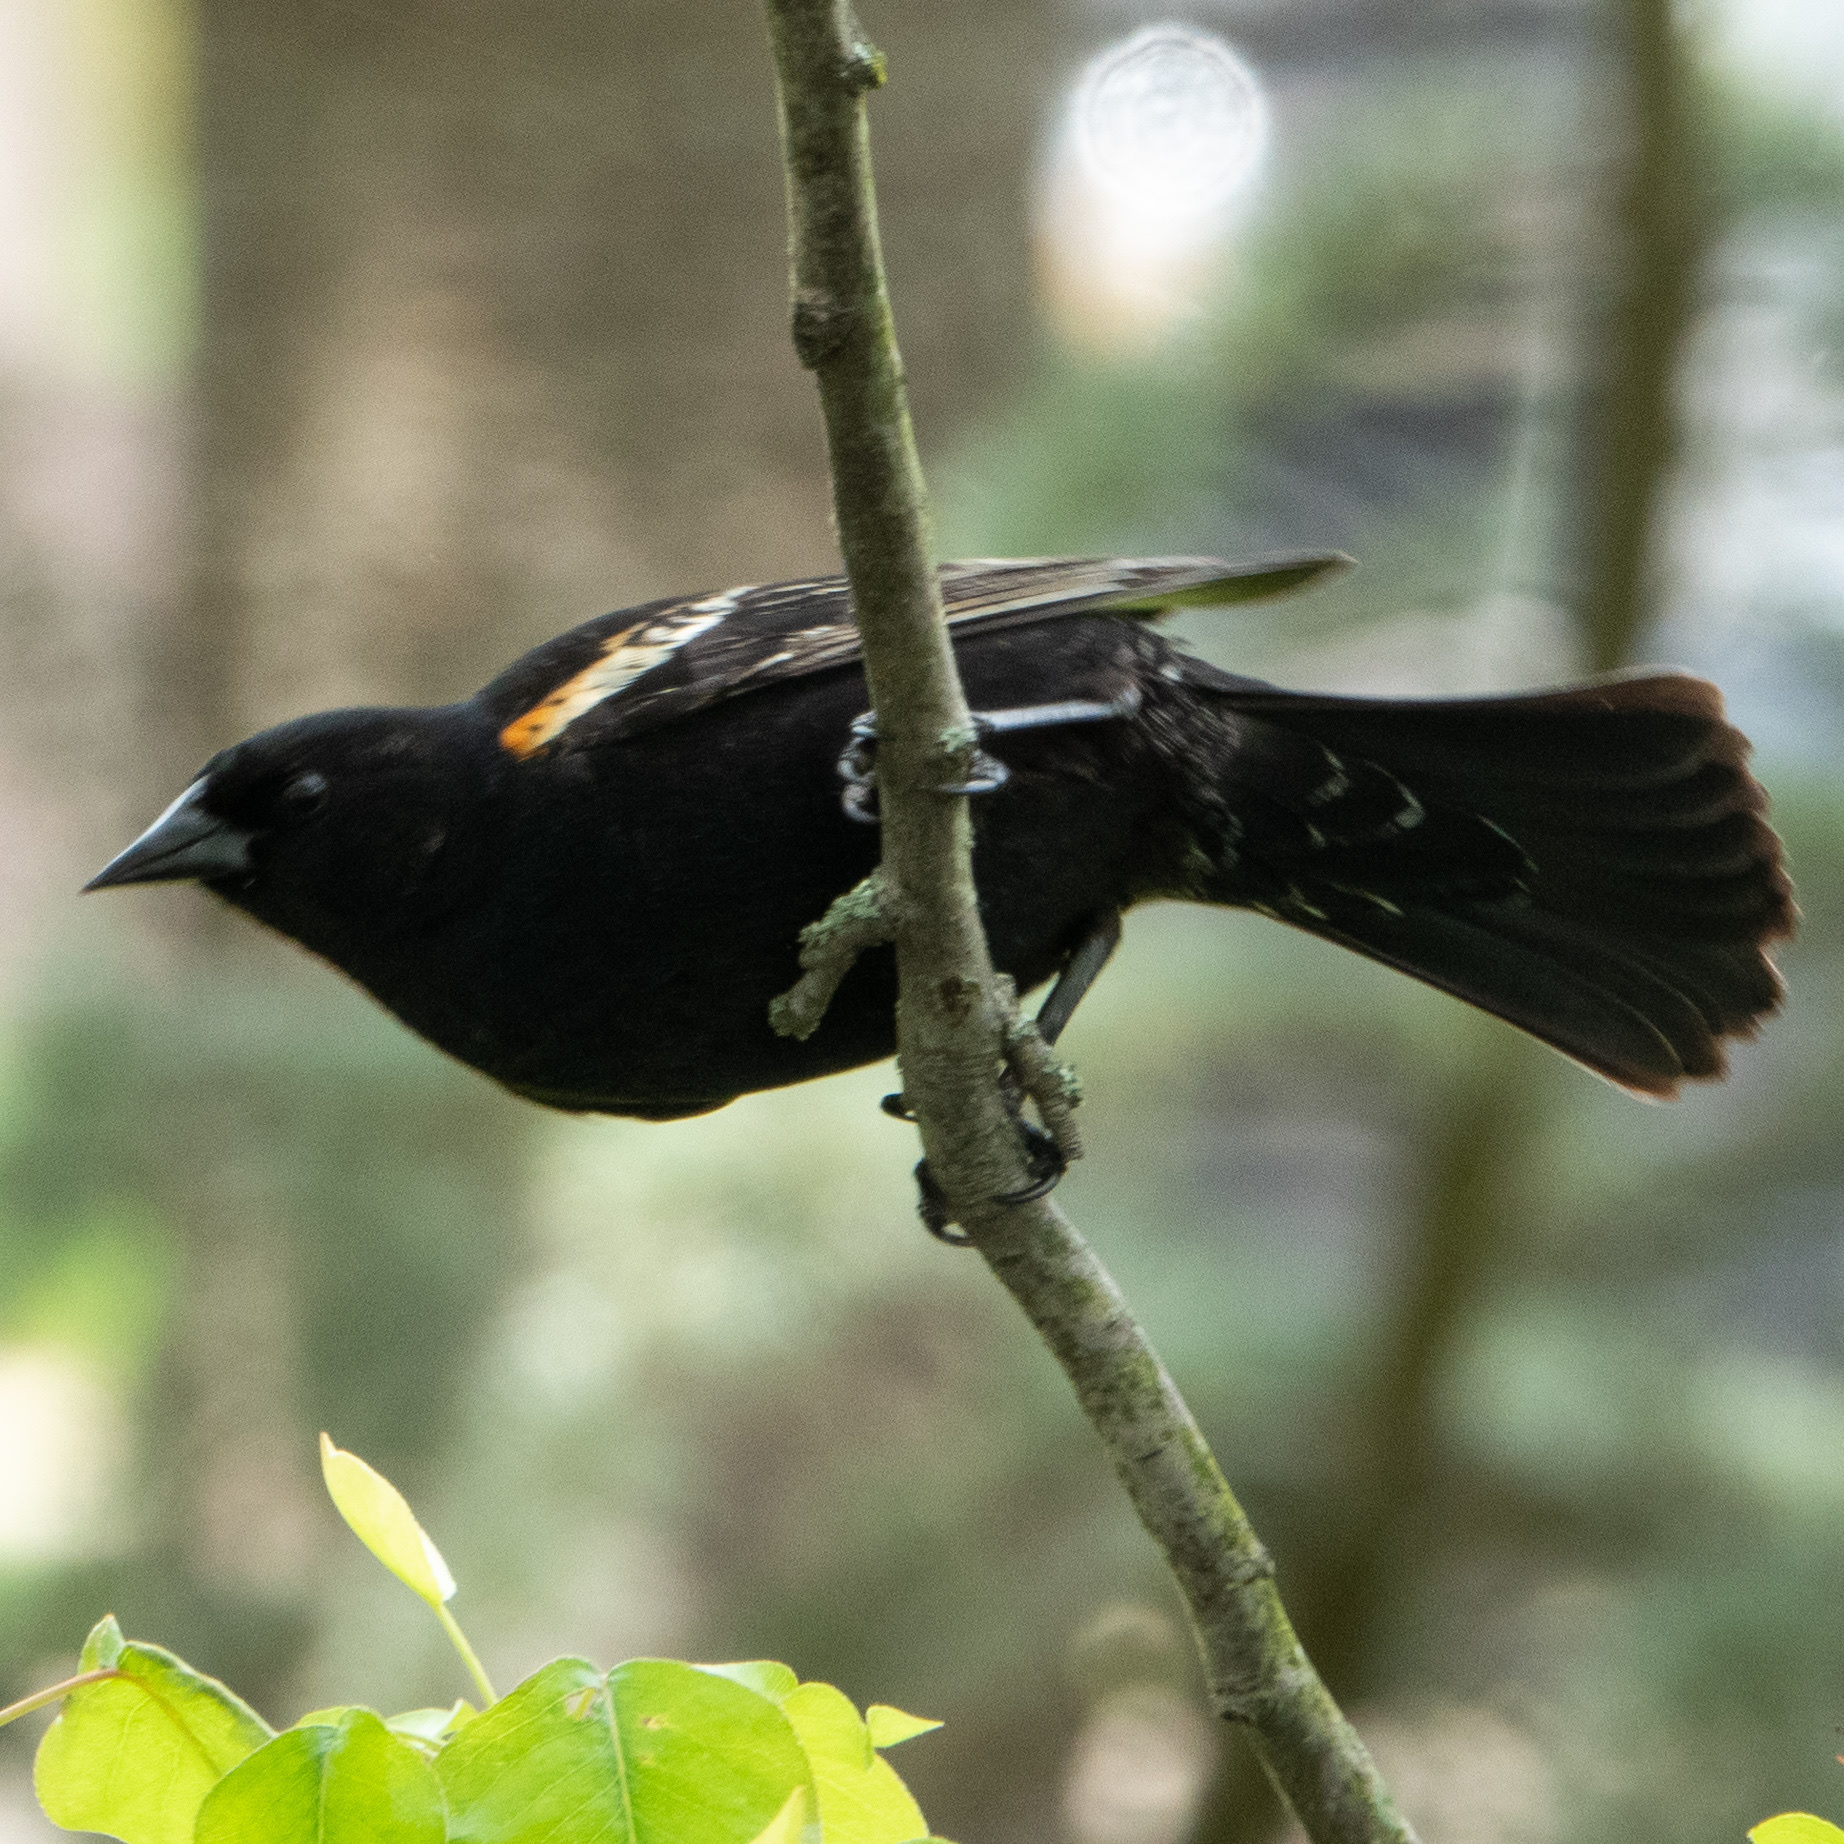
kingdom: Animalia
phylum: Chordata
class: Aves
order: Passeriformes
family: Icteridae
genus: Agelaius
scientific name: Agelaius phoeniceus
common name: Red-winged blackbird
